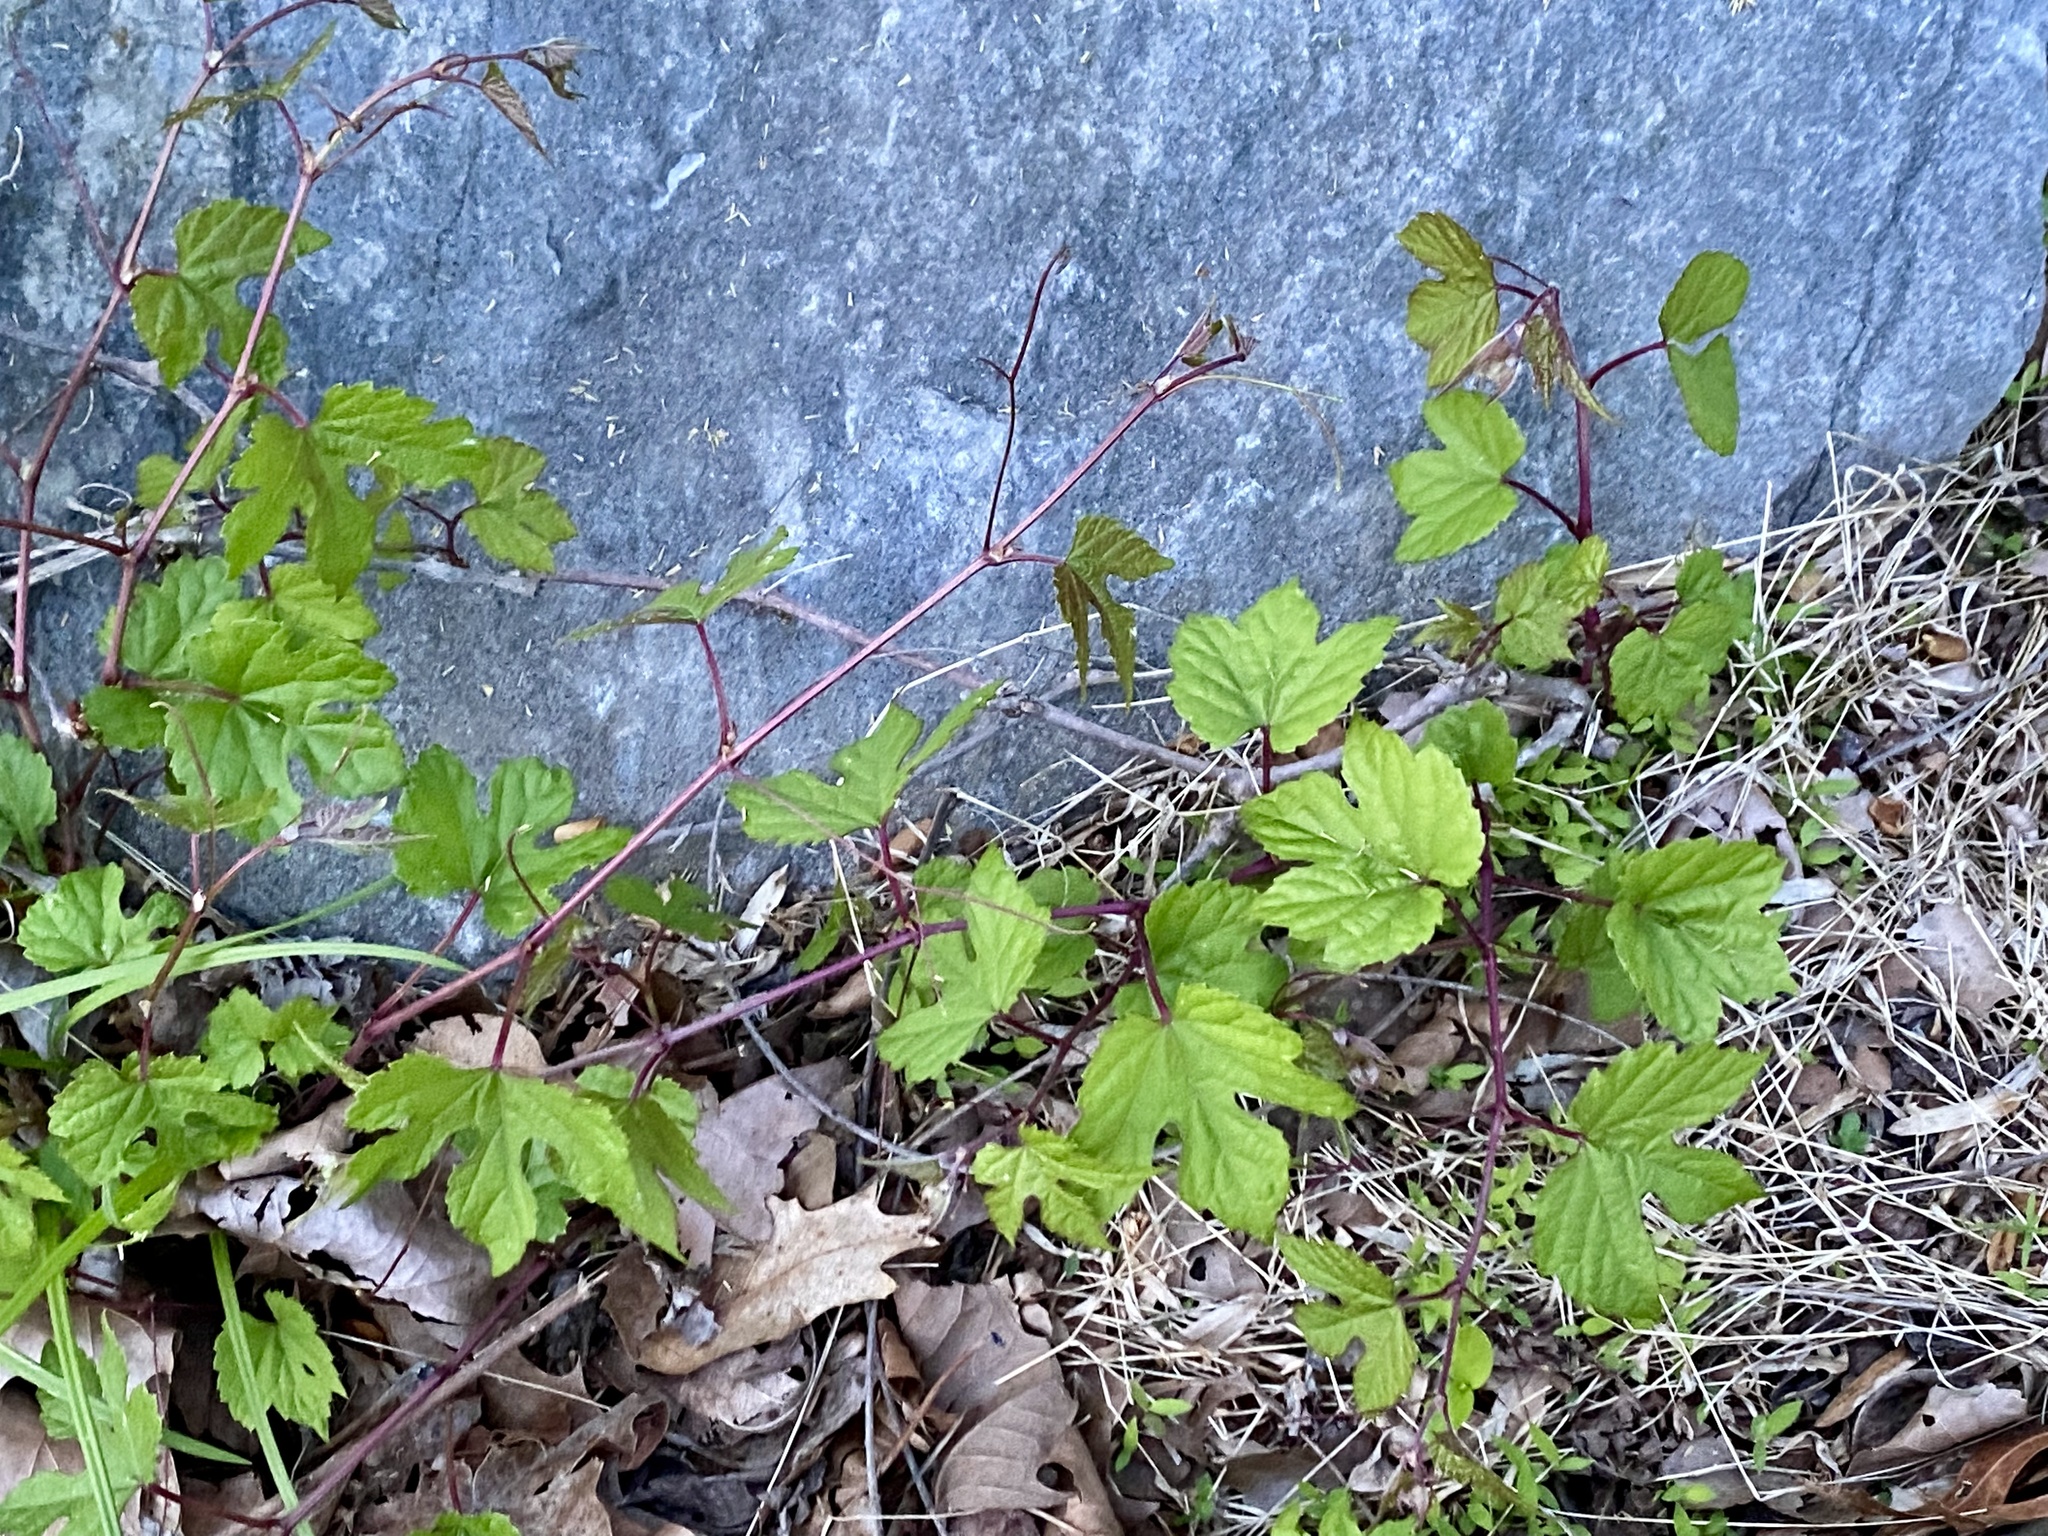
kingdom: Plantae
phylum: Tracheophyta
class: Magnoliopsida
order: Vitales
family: Vitaceae
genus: Ampelopsis
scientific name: Ampelopsis glandulosa
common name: Amur peppervine
